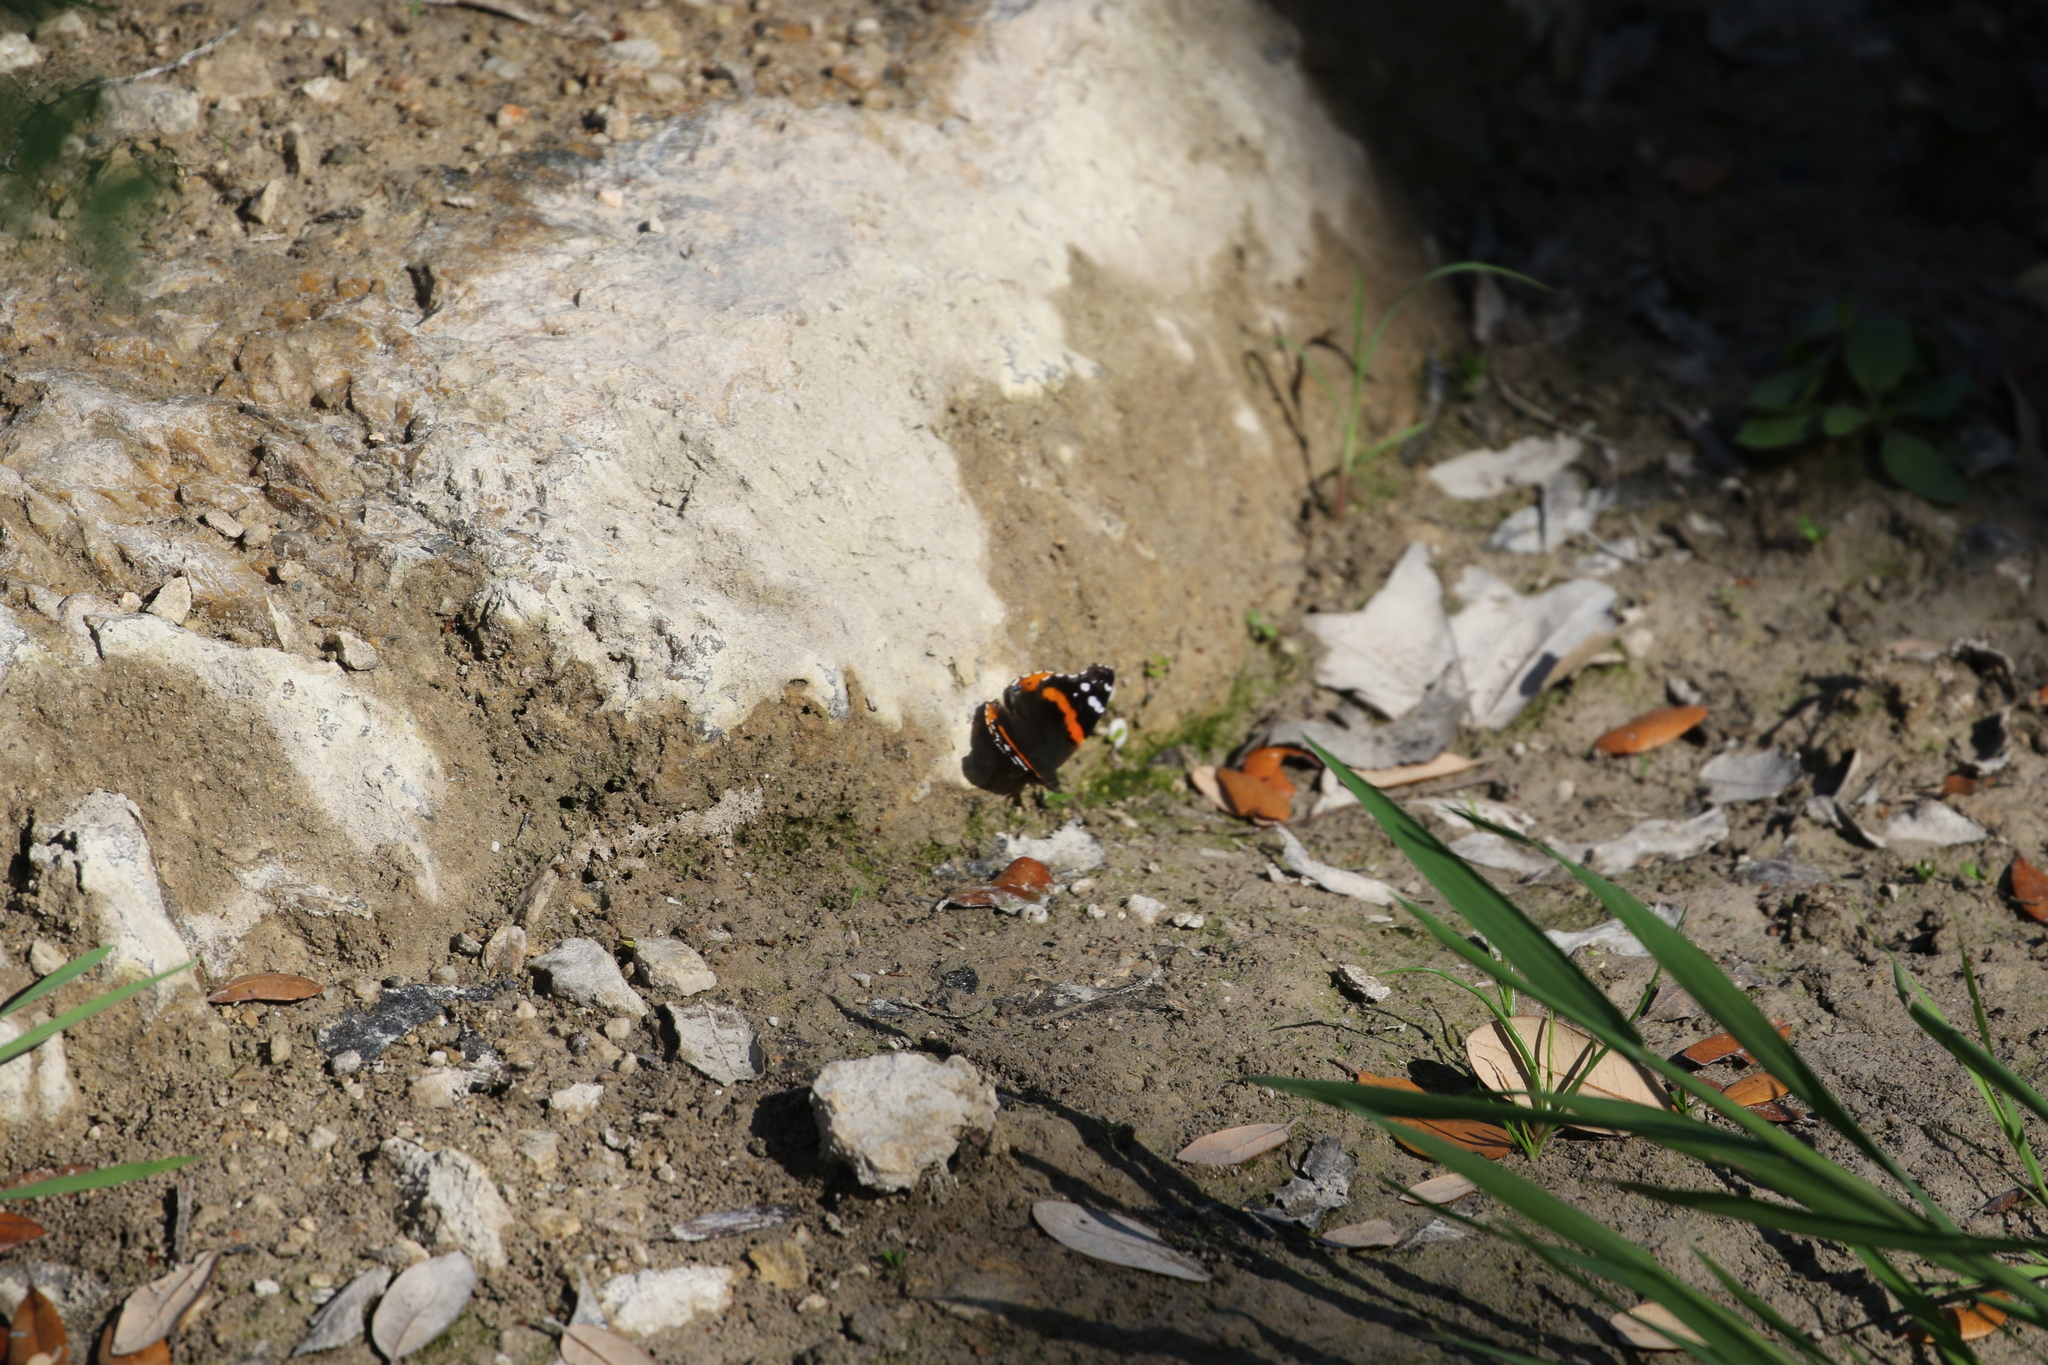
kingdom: Animalia
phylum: Arthropoda
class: Insecta
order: Lepidoptera
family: Nymphalidae
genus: Vanessa
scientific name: Vanessa atalanta
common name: Red admiral
